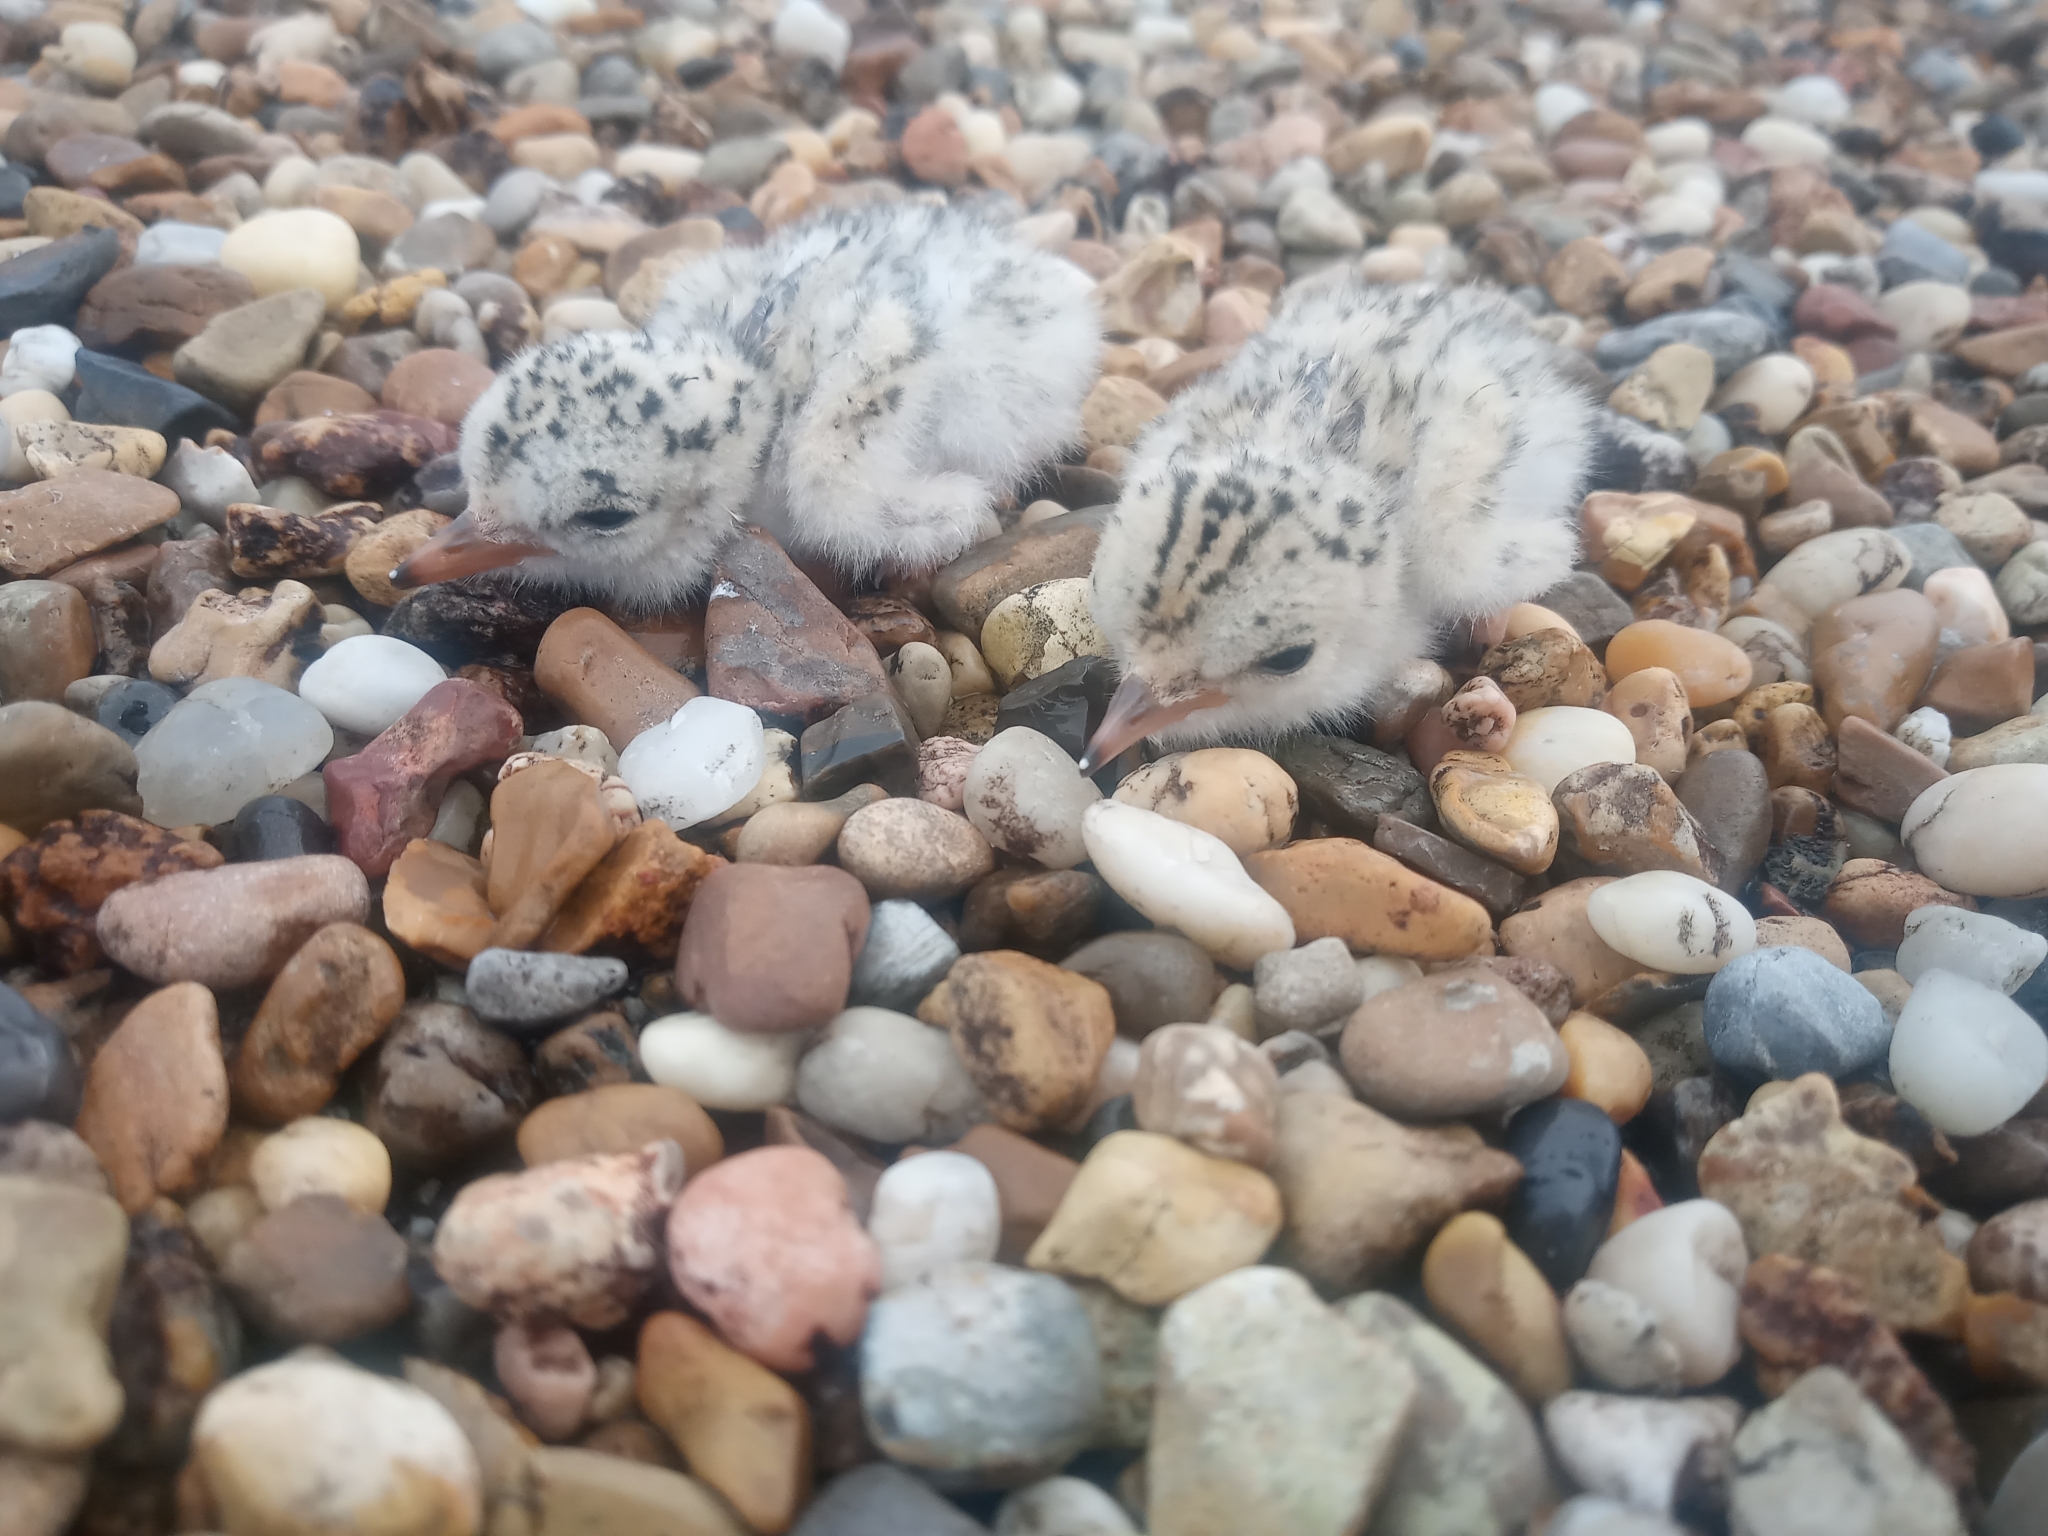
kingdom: Animalia
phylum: Chordata
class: Aves
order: Charadriiformes
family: Laridae
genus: Sternula
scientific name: Sternula antillarum
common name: Least tern
